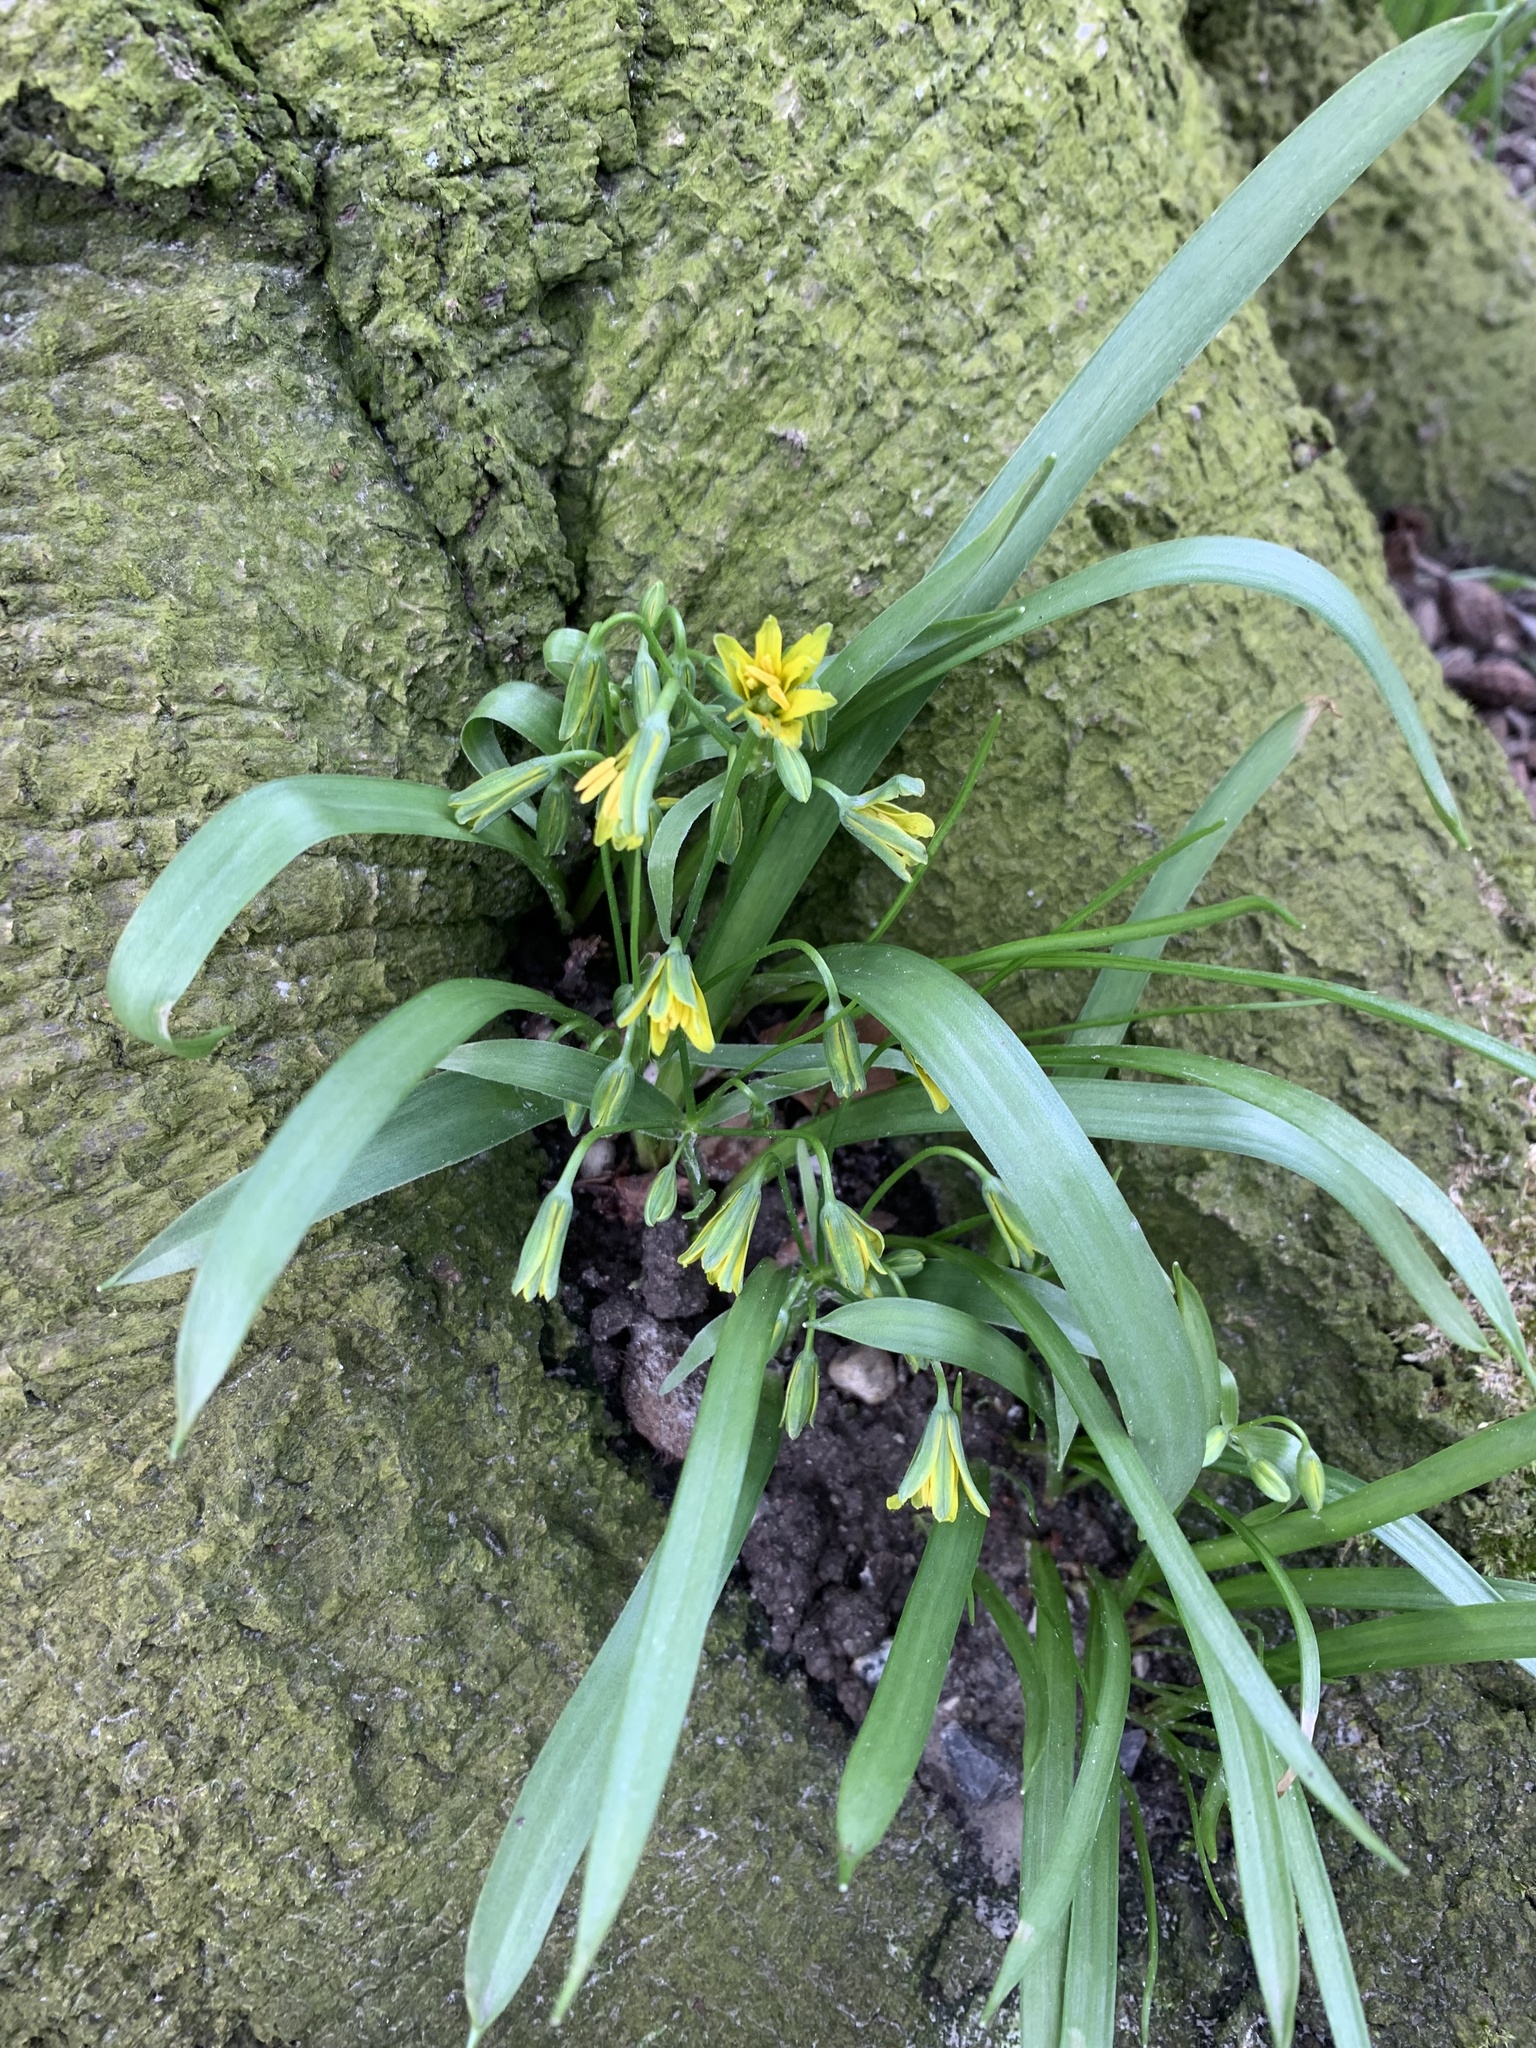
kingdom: Plantae
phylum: Tracheophyta
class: Liliopsida
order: Liliales
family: Liliaceae
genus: Gagea
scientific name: Gagea lutea
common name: Yellow star-of-bethlehem
